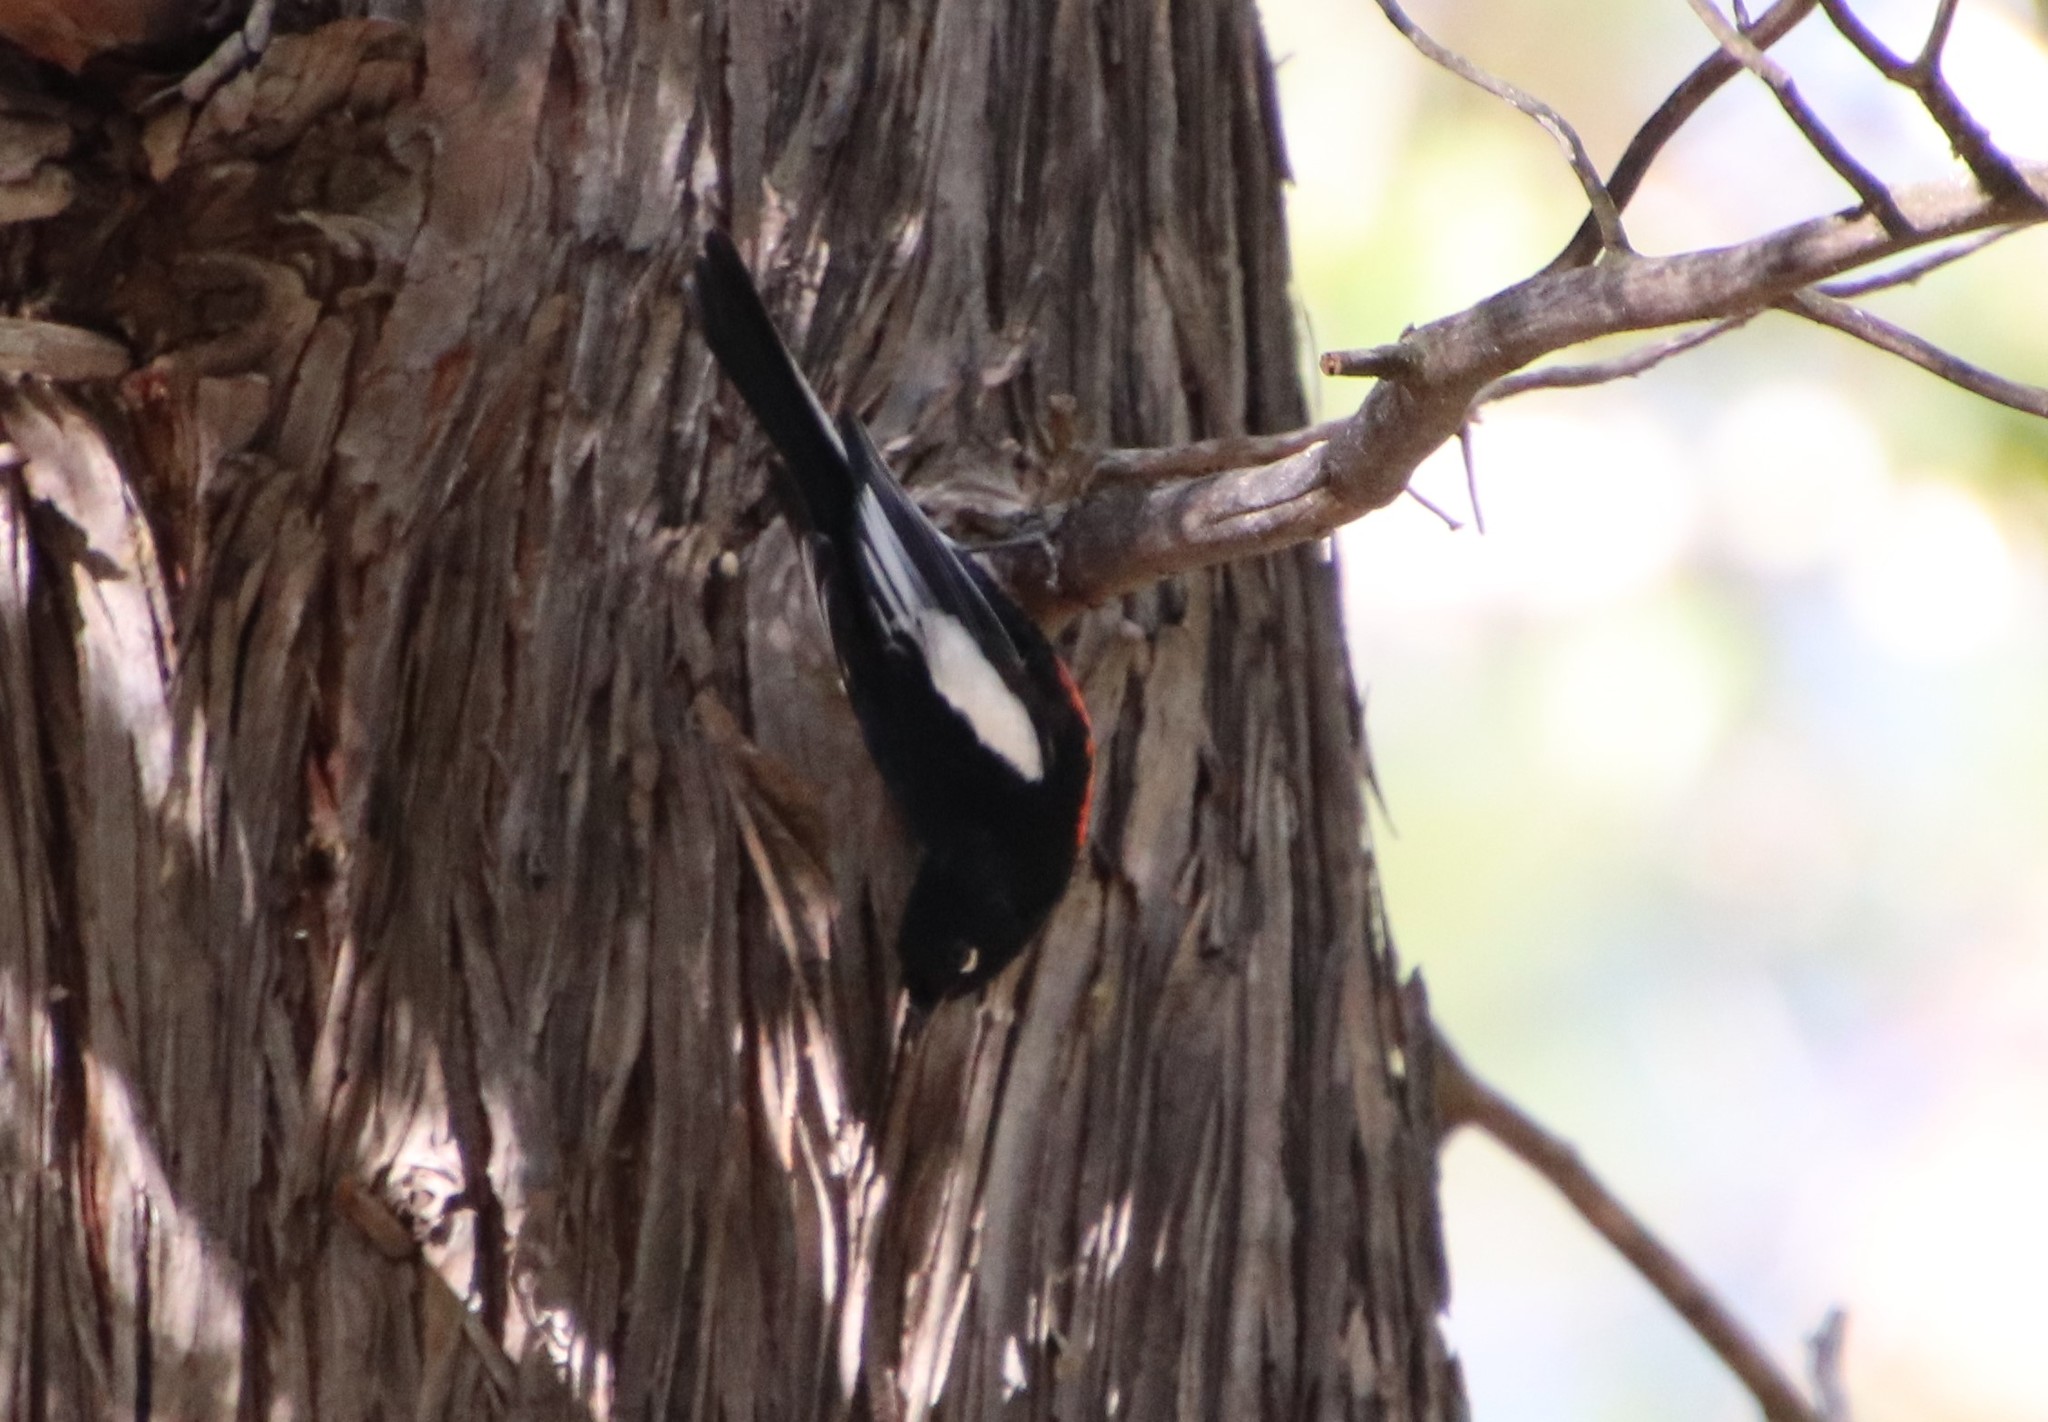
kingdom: Animalia
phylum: Chordata
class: Aves
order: Passeriformes
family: Parulidae
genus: Myioborus
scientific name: Myioborus pictus
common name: Painted whitestart
